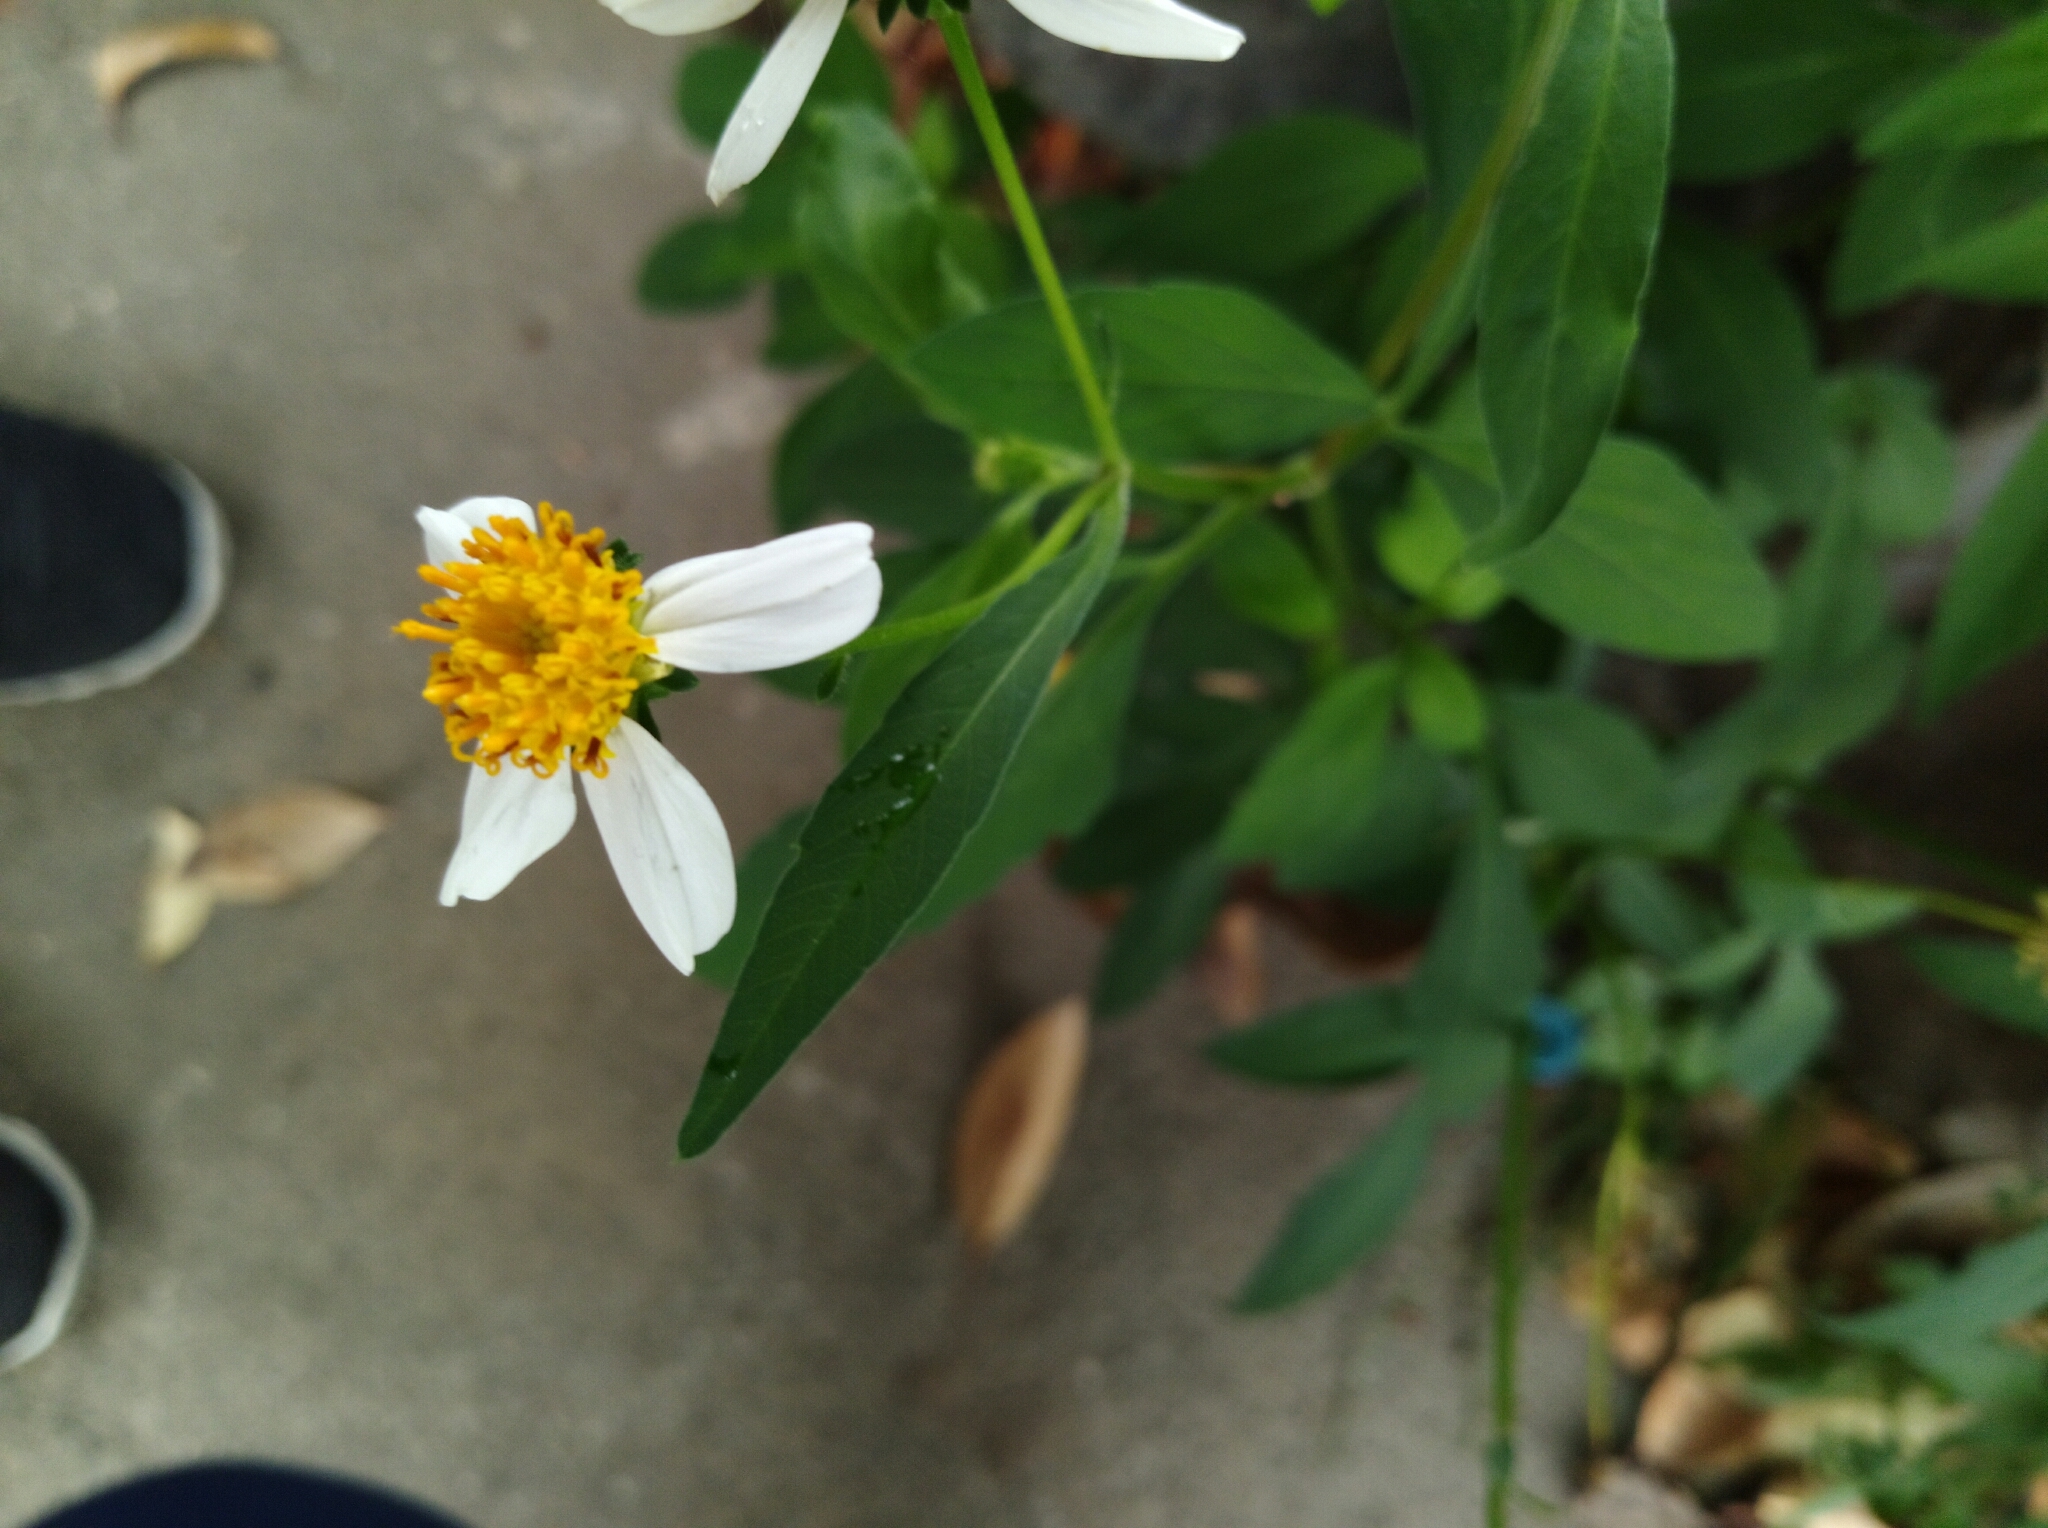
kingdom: Plantae
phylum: Tracheophyta
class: Magnoliopsida
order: Asterales
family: Asteraceae
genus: Bidens
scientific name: Bidens alba
